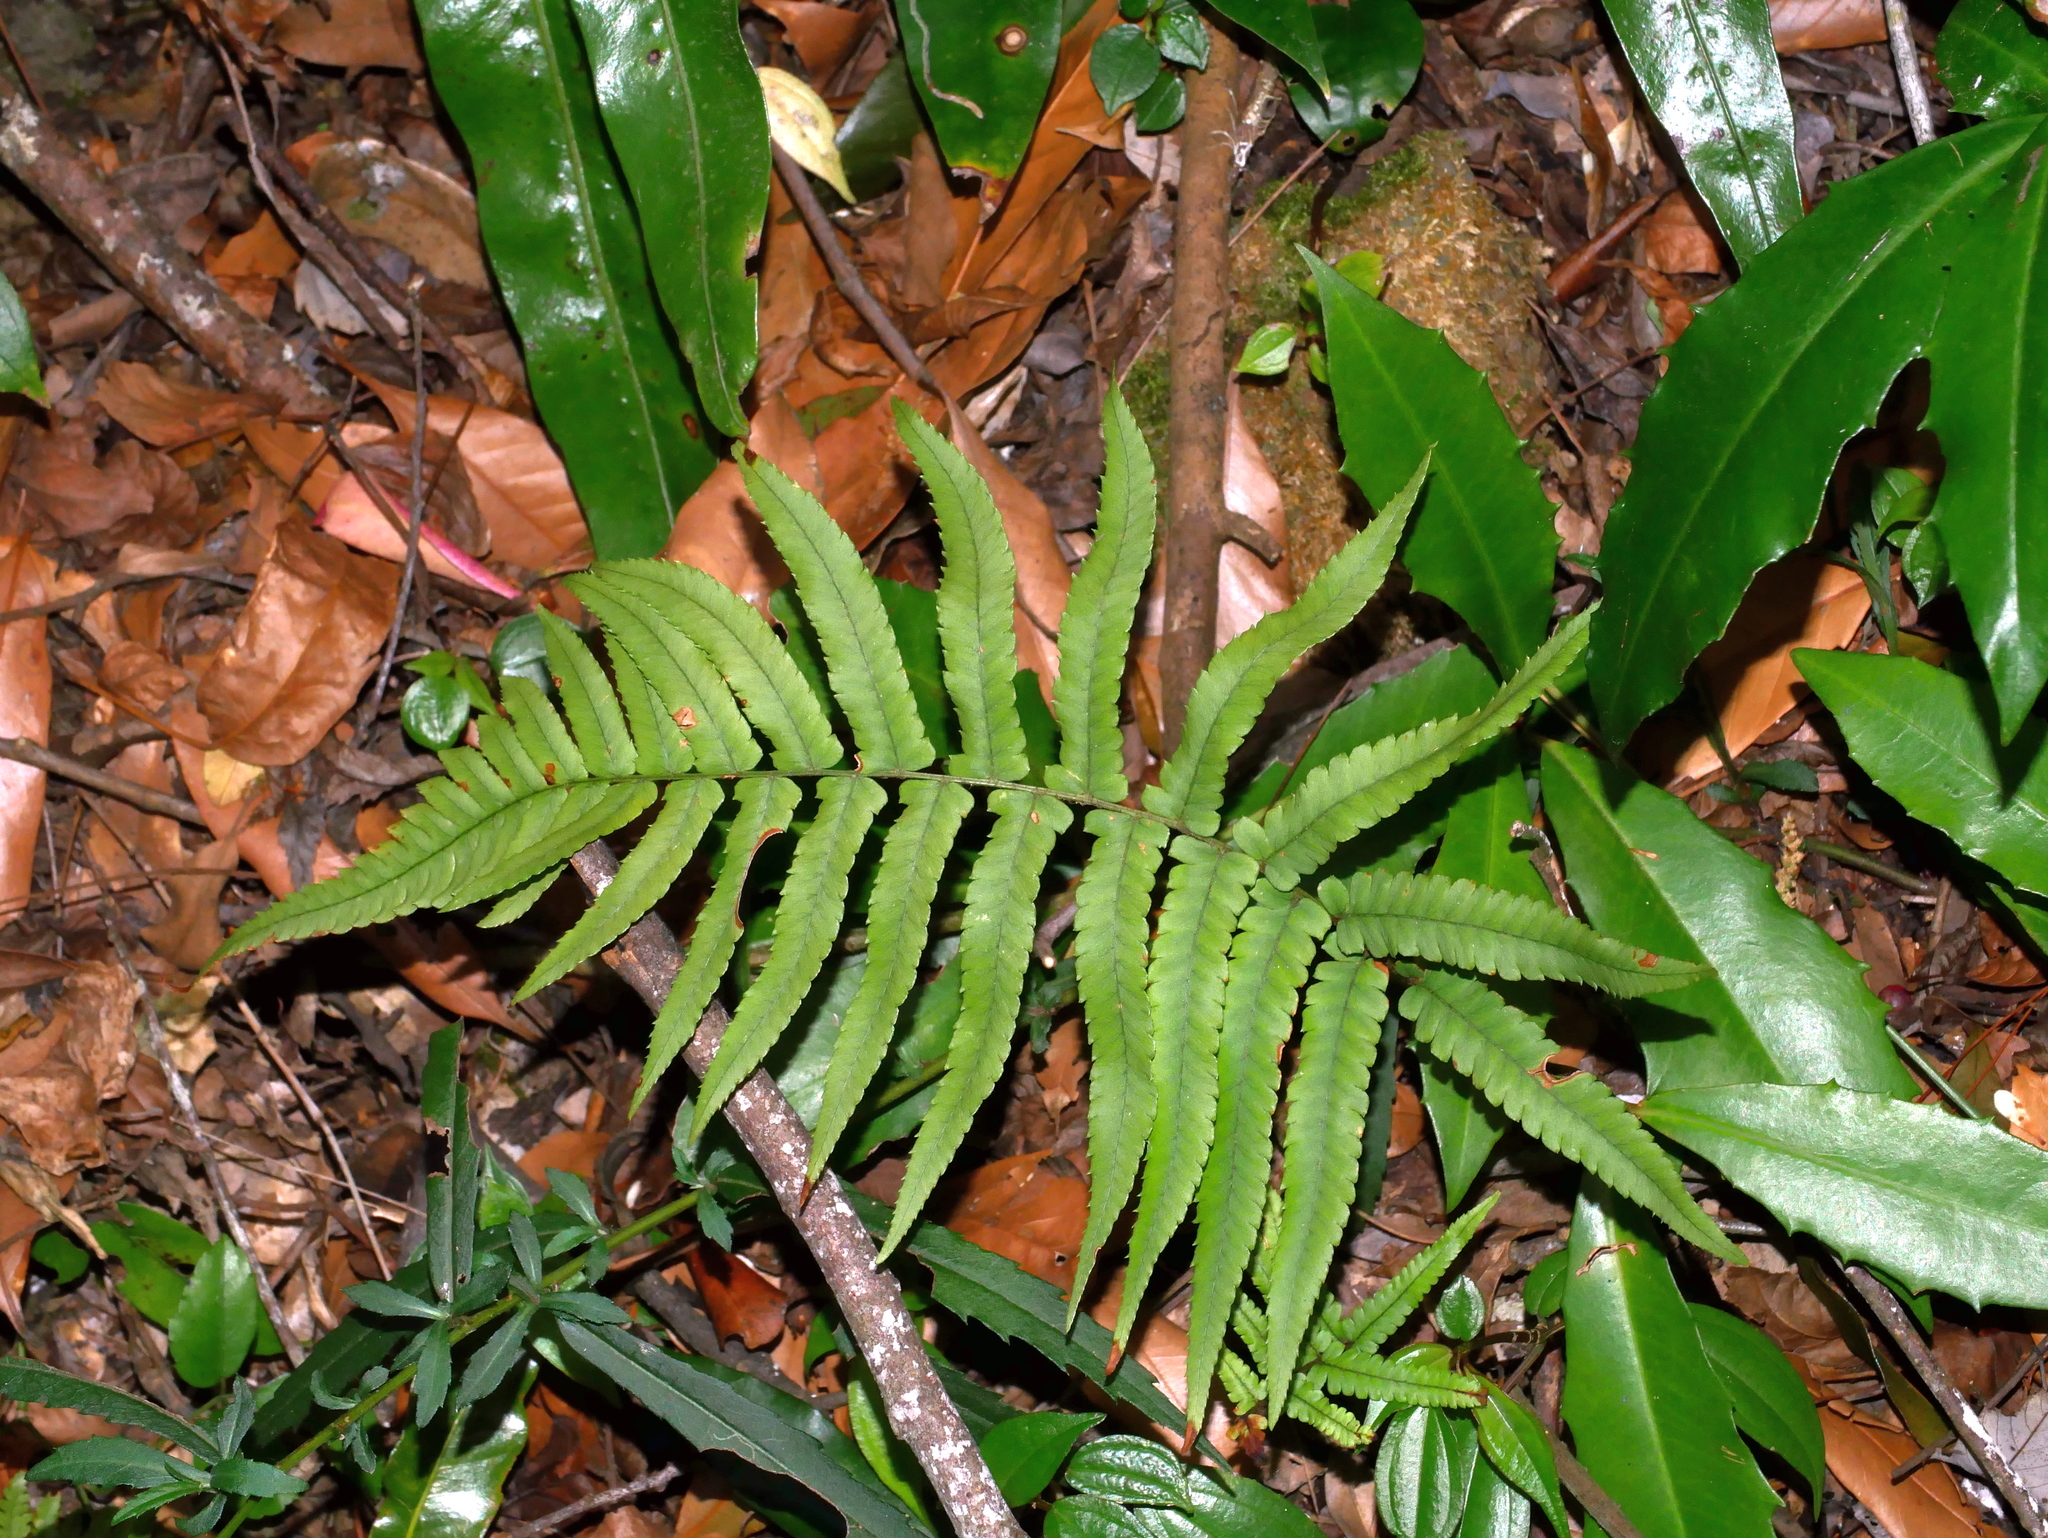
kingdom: Plantae
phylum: Tracheophyta
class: Polypodiopsida
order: Polypodiales
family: Dryopteridaceae
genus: Dryopteris
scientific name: Dryopteris cycadina
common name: Shaggy wood fern
